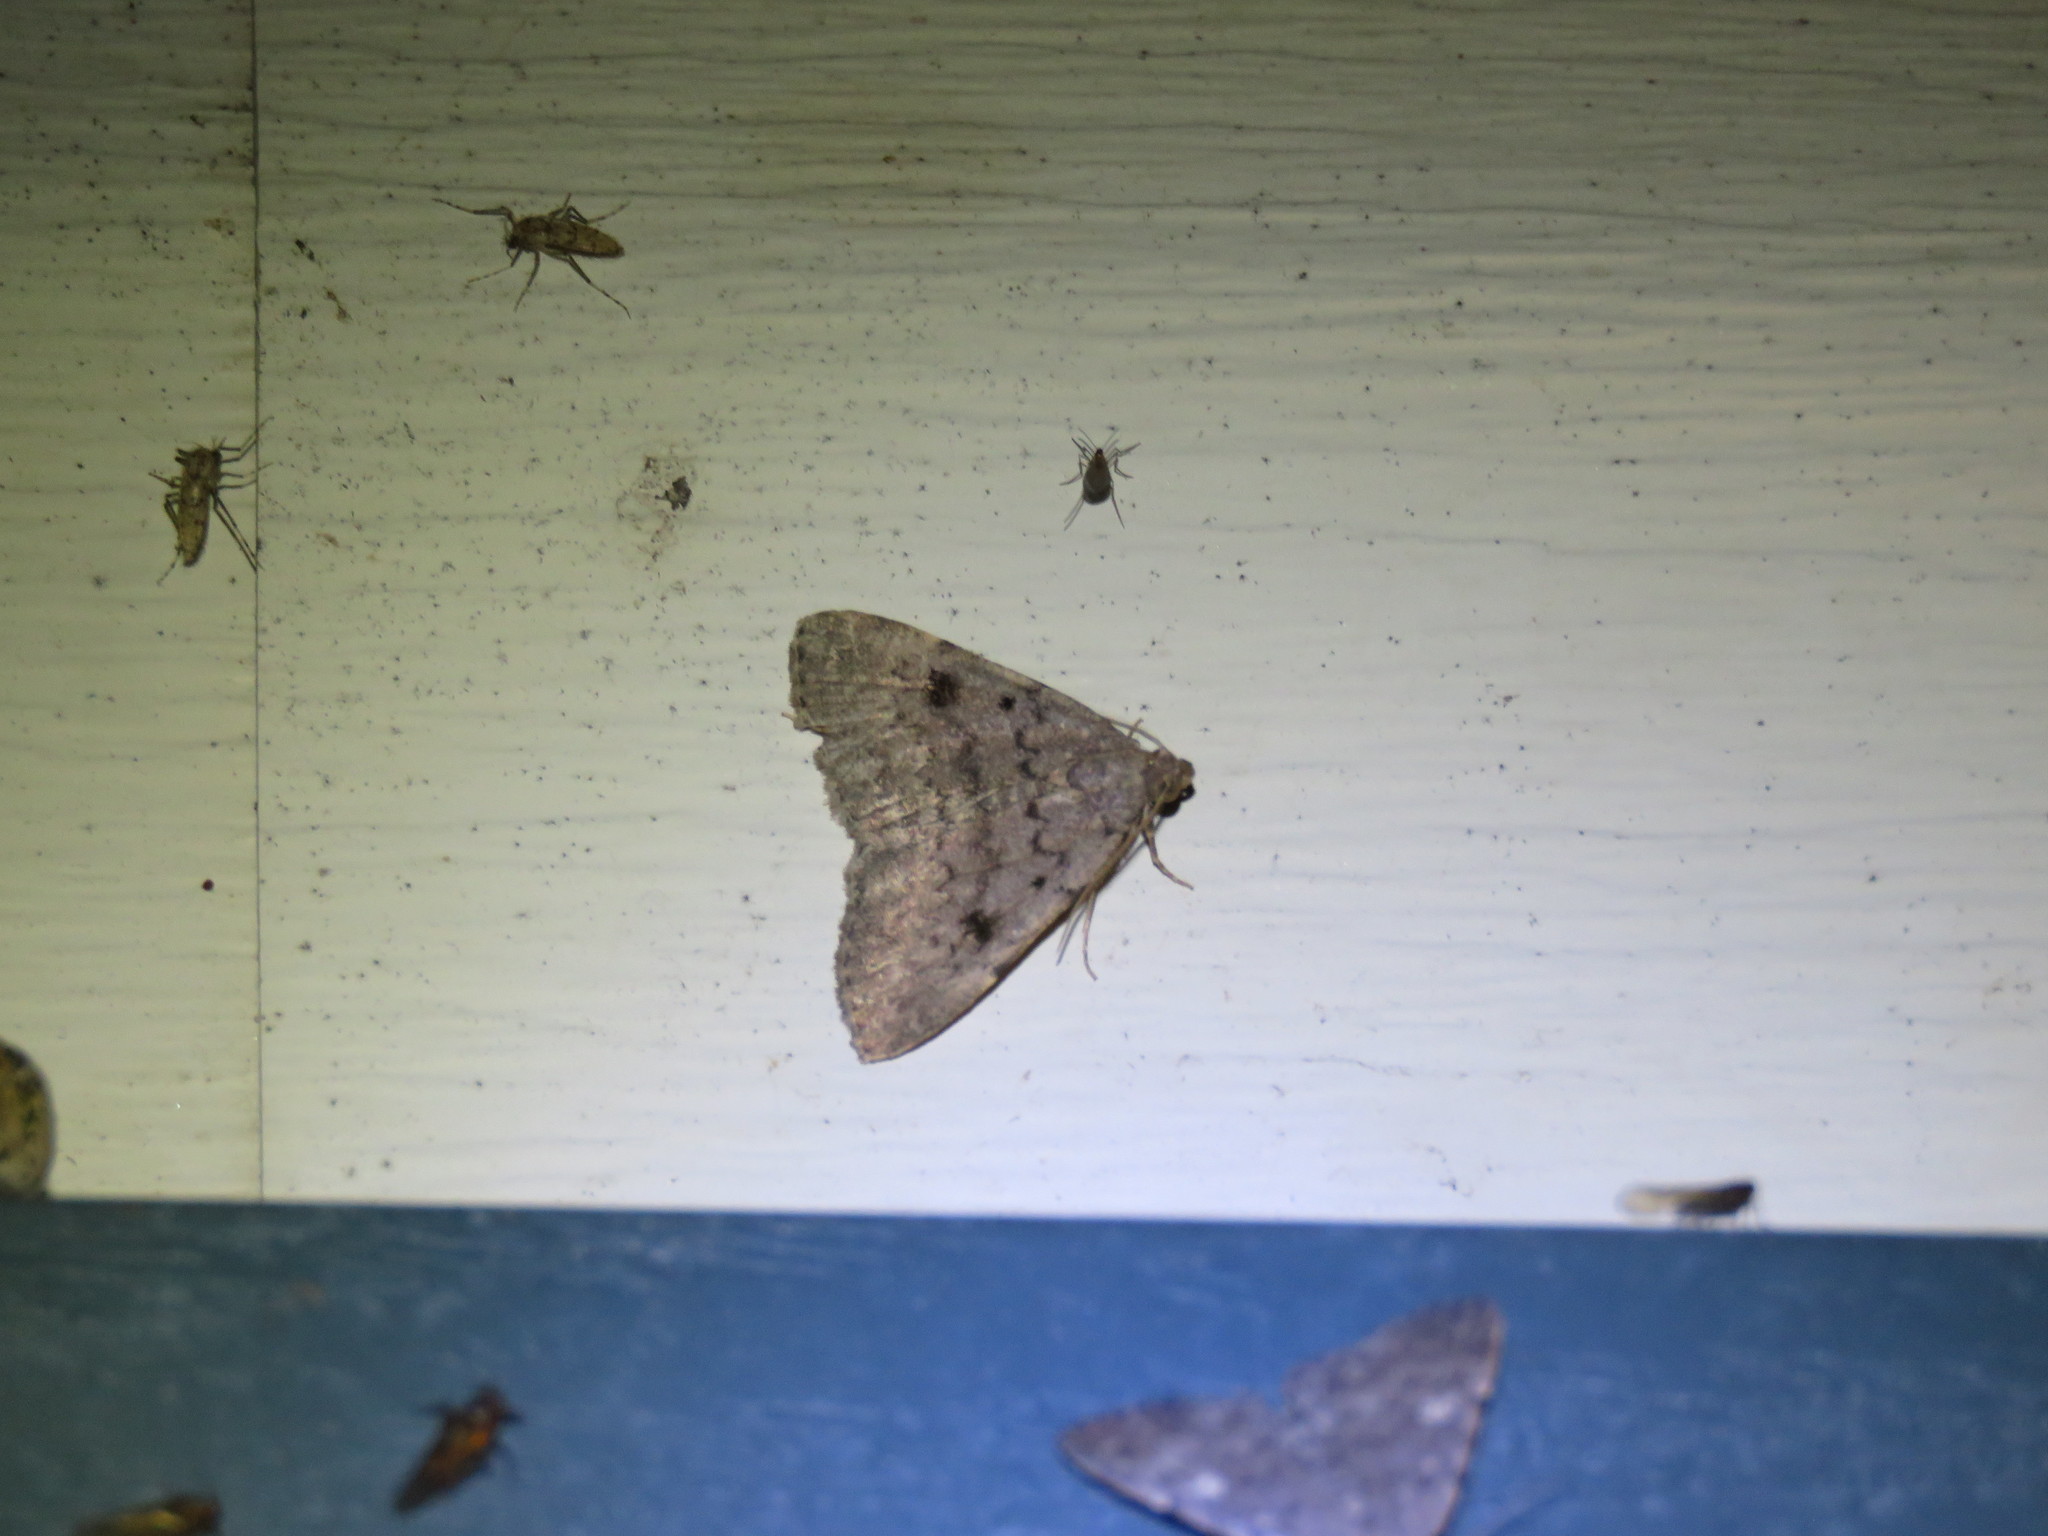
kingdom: Animalia
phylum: Arthropoda
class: Insecta
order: Lepidoptera
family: Erebidae
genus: Idia
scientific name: Idia aemula
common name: Common idia moth
